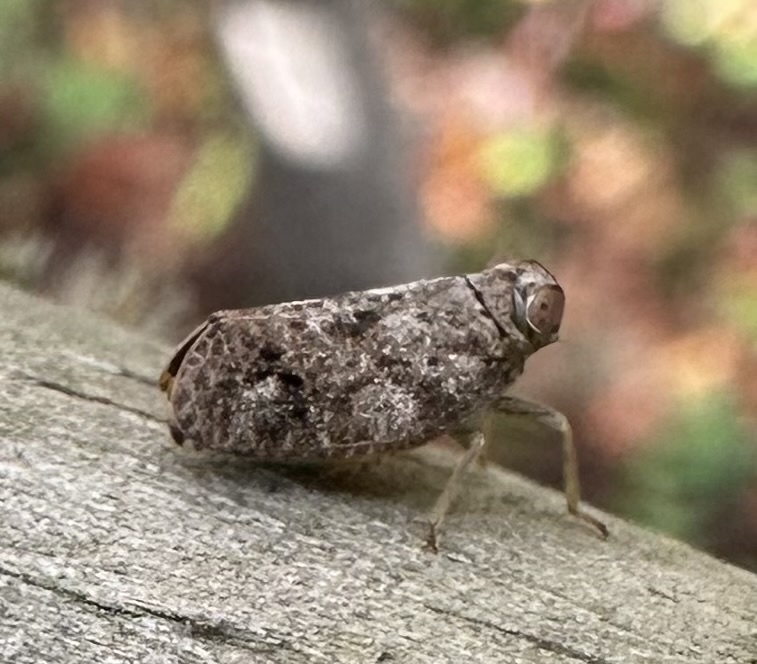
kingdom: Animalia
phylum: Arthropoda
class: Insecta
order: Hemiptera
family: Issidae
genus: Thionia
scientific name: Thionia bullata
